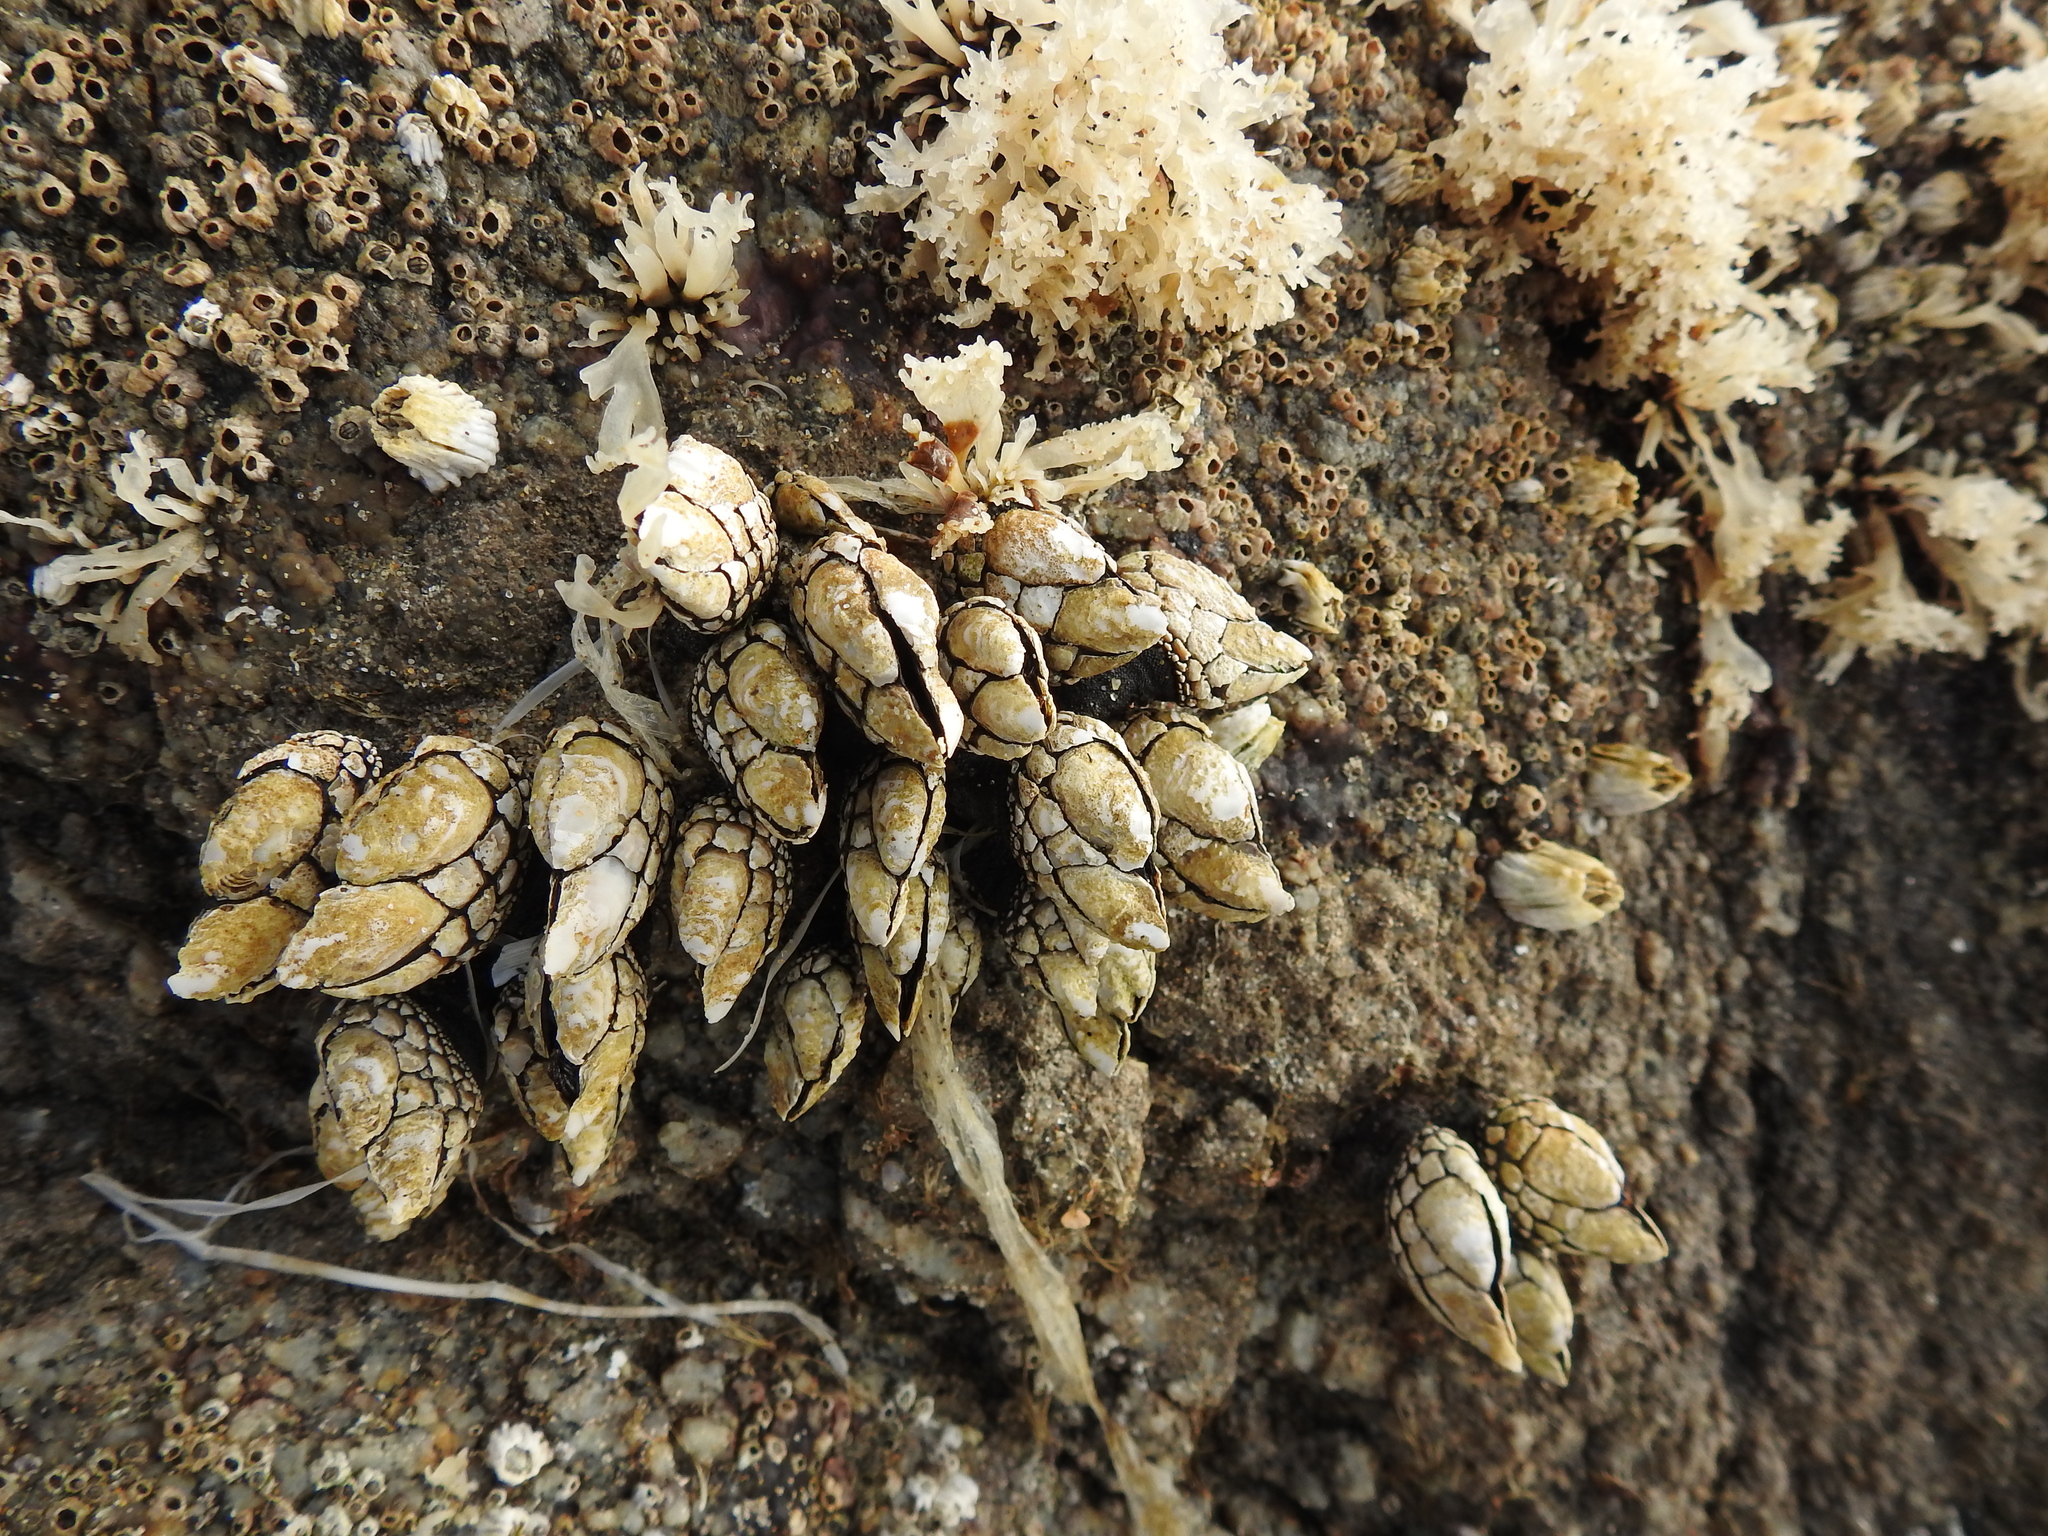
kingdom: Animalia
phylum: Arthropoda
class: Maxillopoda
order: Pedunculata
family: Pollicipedidae
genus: Pollicipes
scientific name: Pollicipes polymerus
